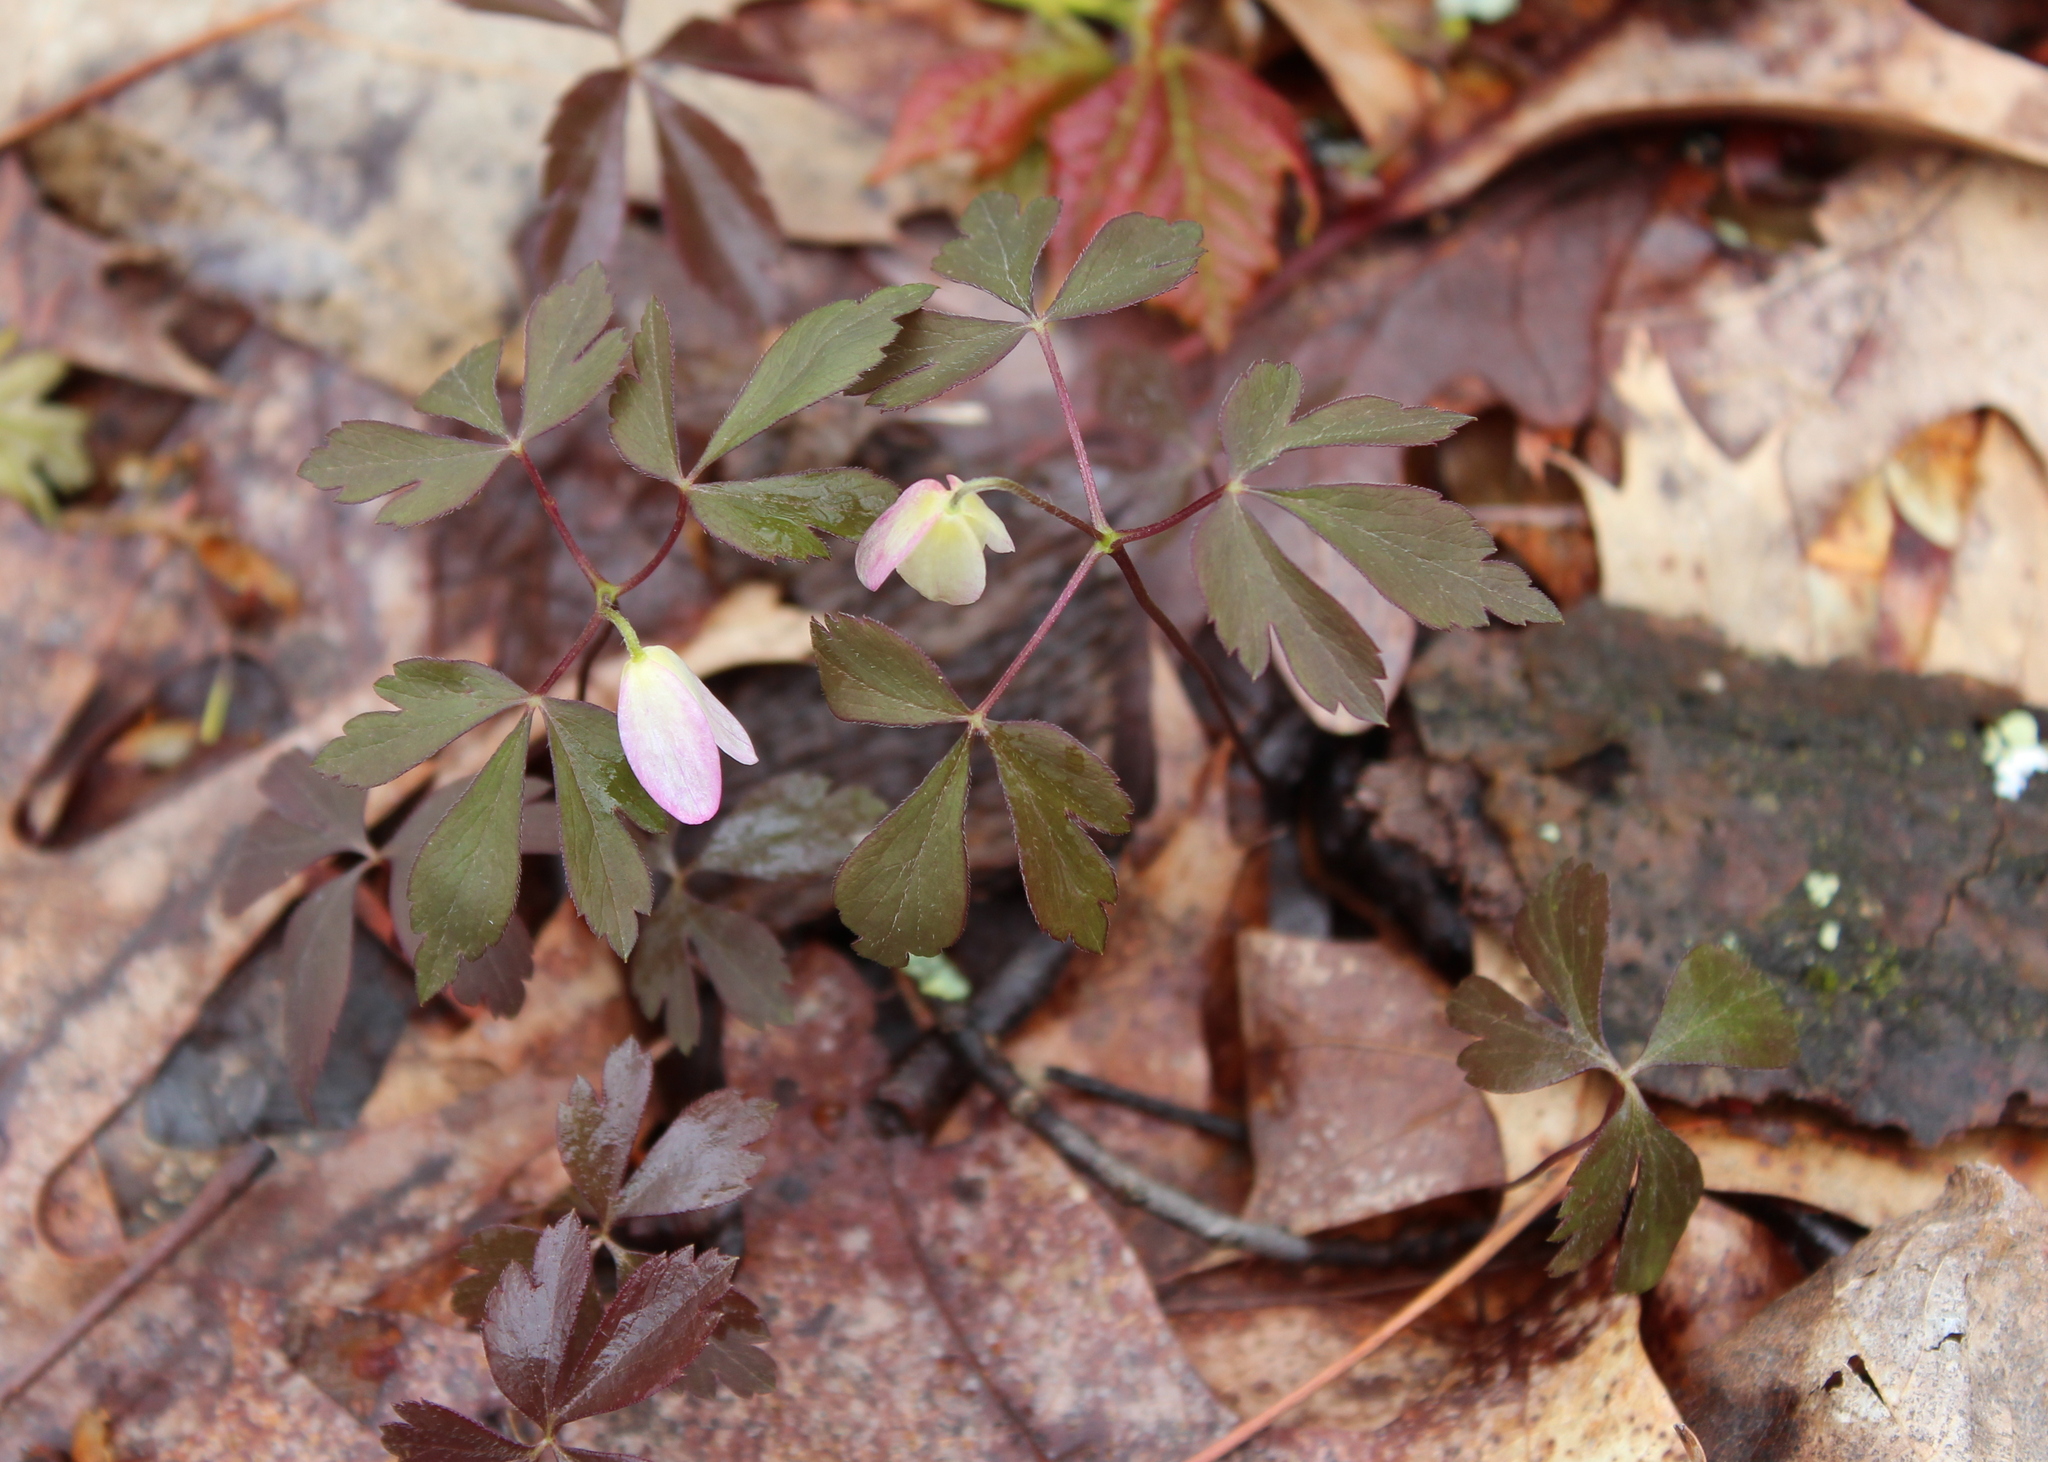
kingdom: Plantae
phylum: Tracheophyta
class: Magnoliopsida
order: Ranunculales
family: Ranunculaceae
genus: Anemone
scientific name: Anemone quinquefolia
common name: Wood anemone
